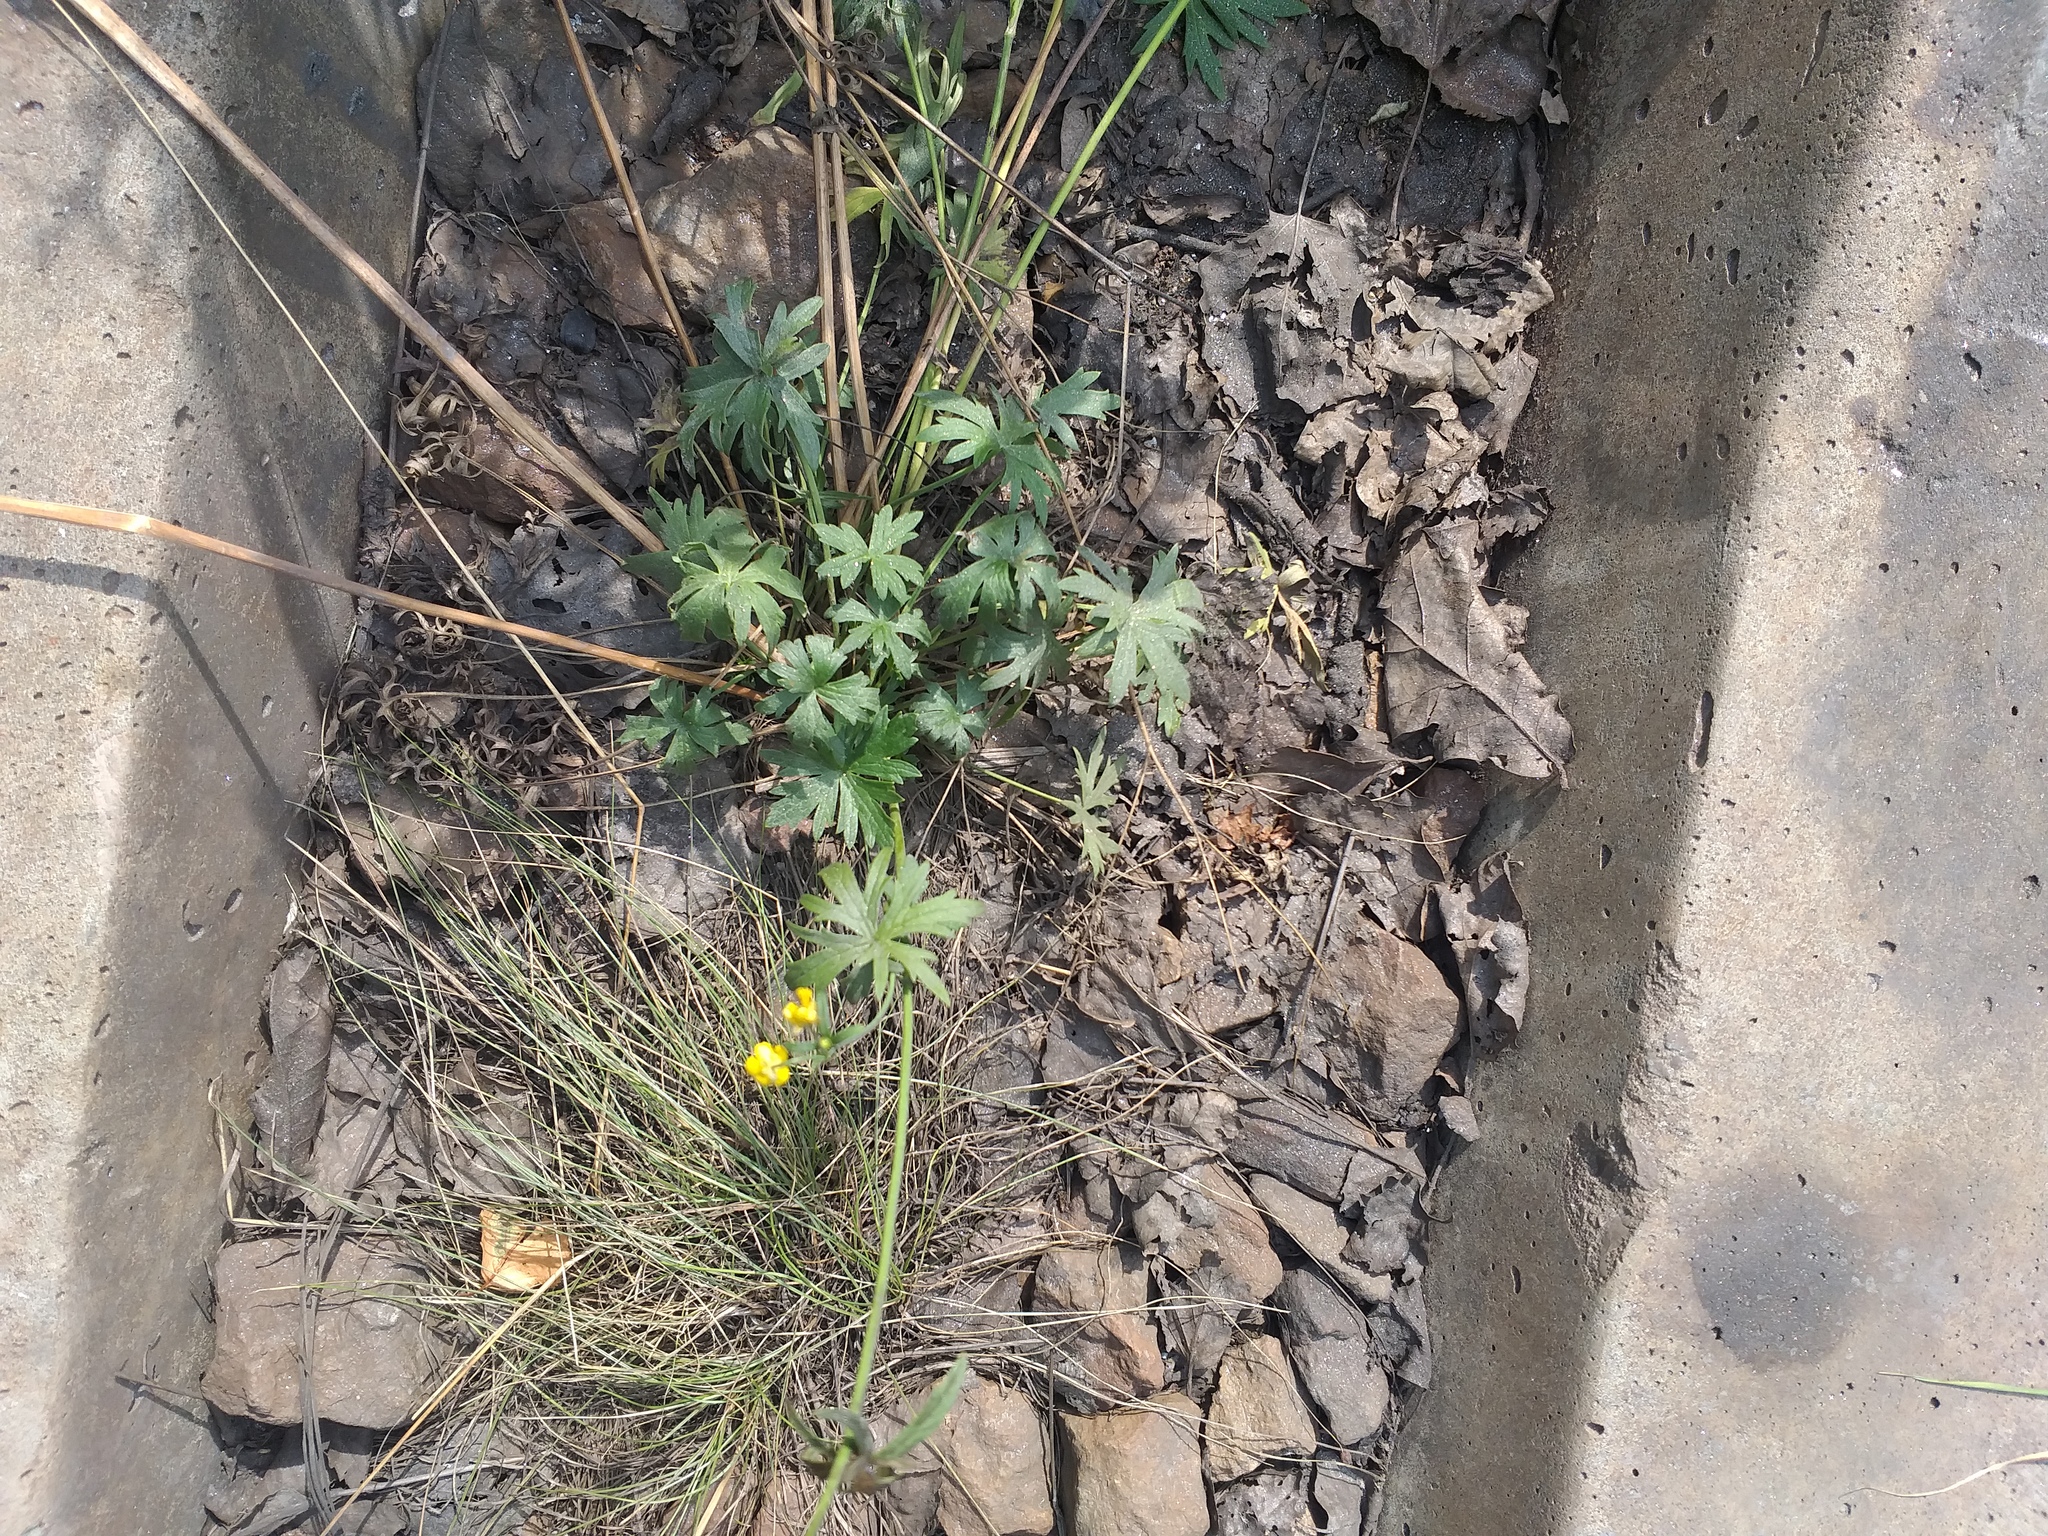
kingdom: Plantae
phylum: Tracheophyta
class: Magnoliopsida
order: Ranunculales
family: Ranunculaceae
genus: Ranunculus
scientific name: Ranunculus acris
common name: Meadow buttercup
